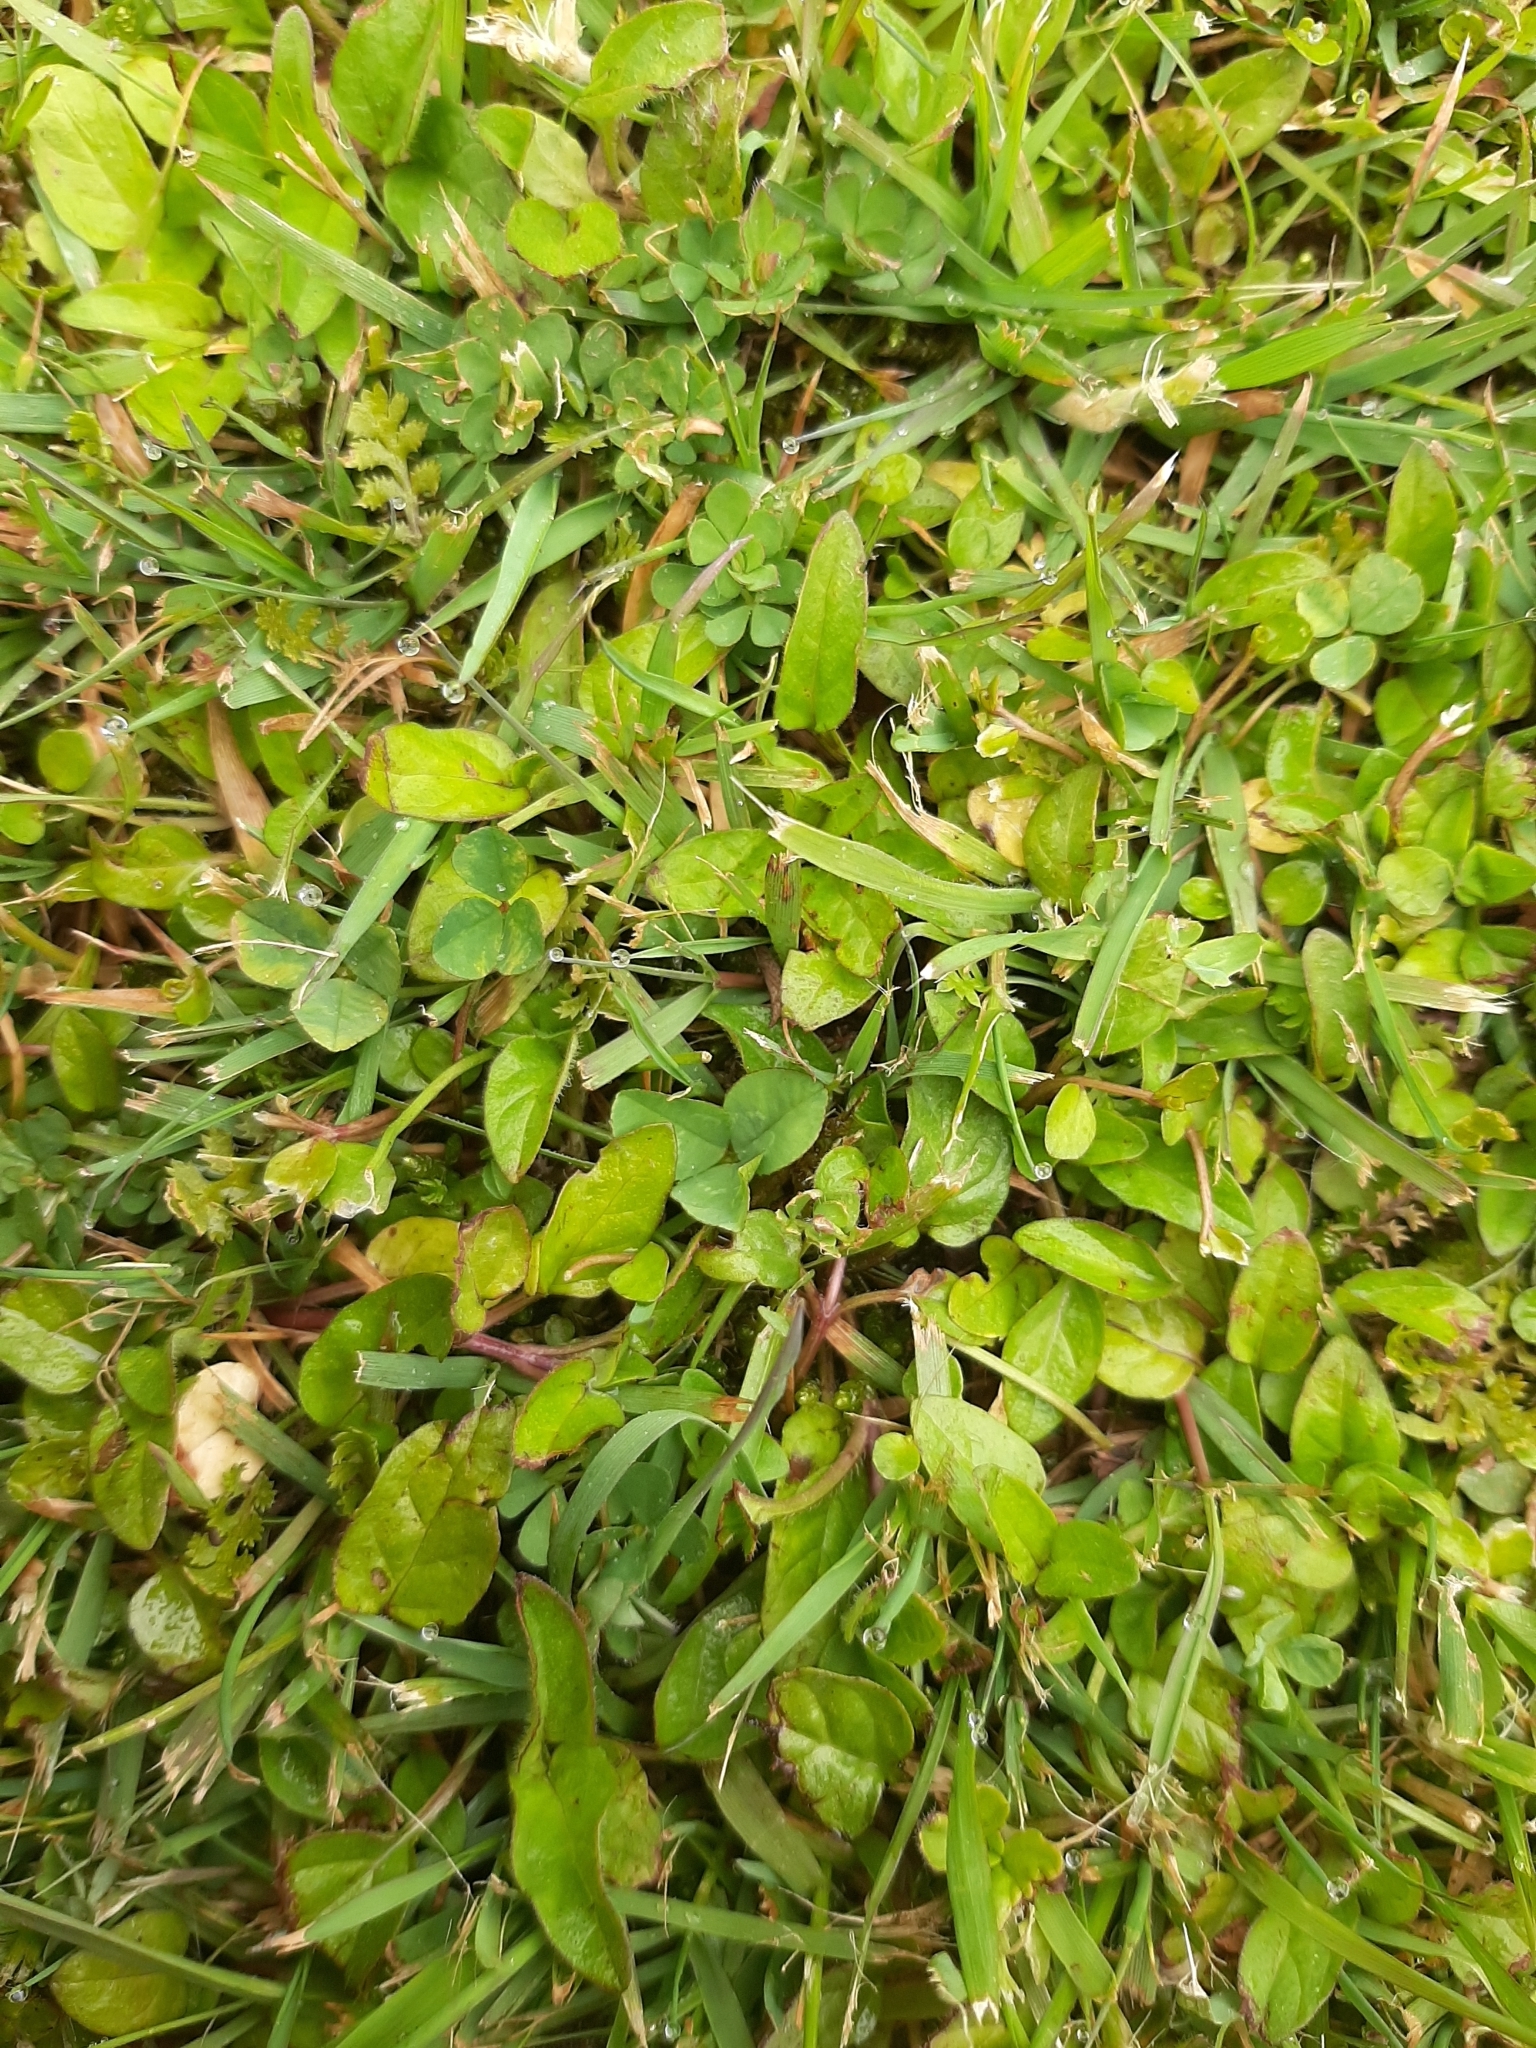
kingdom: Plantae
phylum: Tracheophyta
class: Magnoliopsida
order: Lamiales
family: Lamiaceae
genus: Prunella
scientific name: Prunella vulgaris
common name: Heal-all
